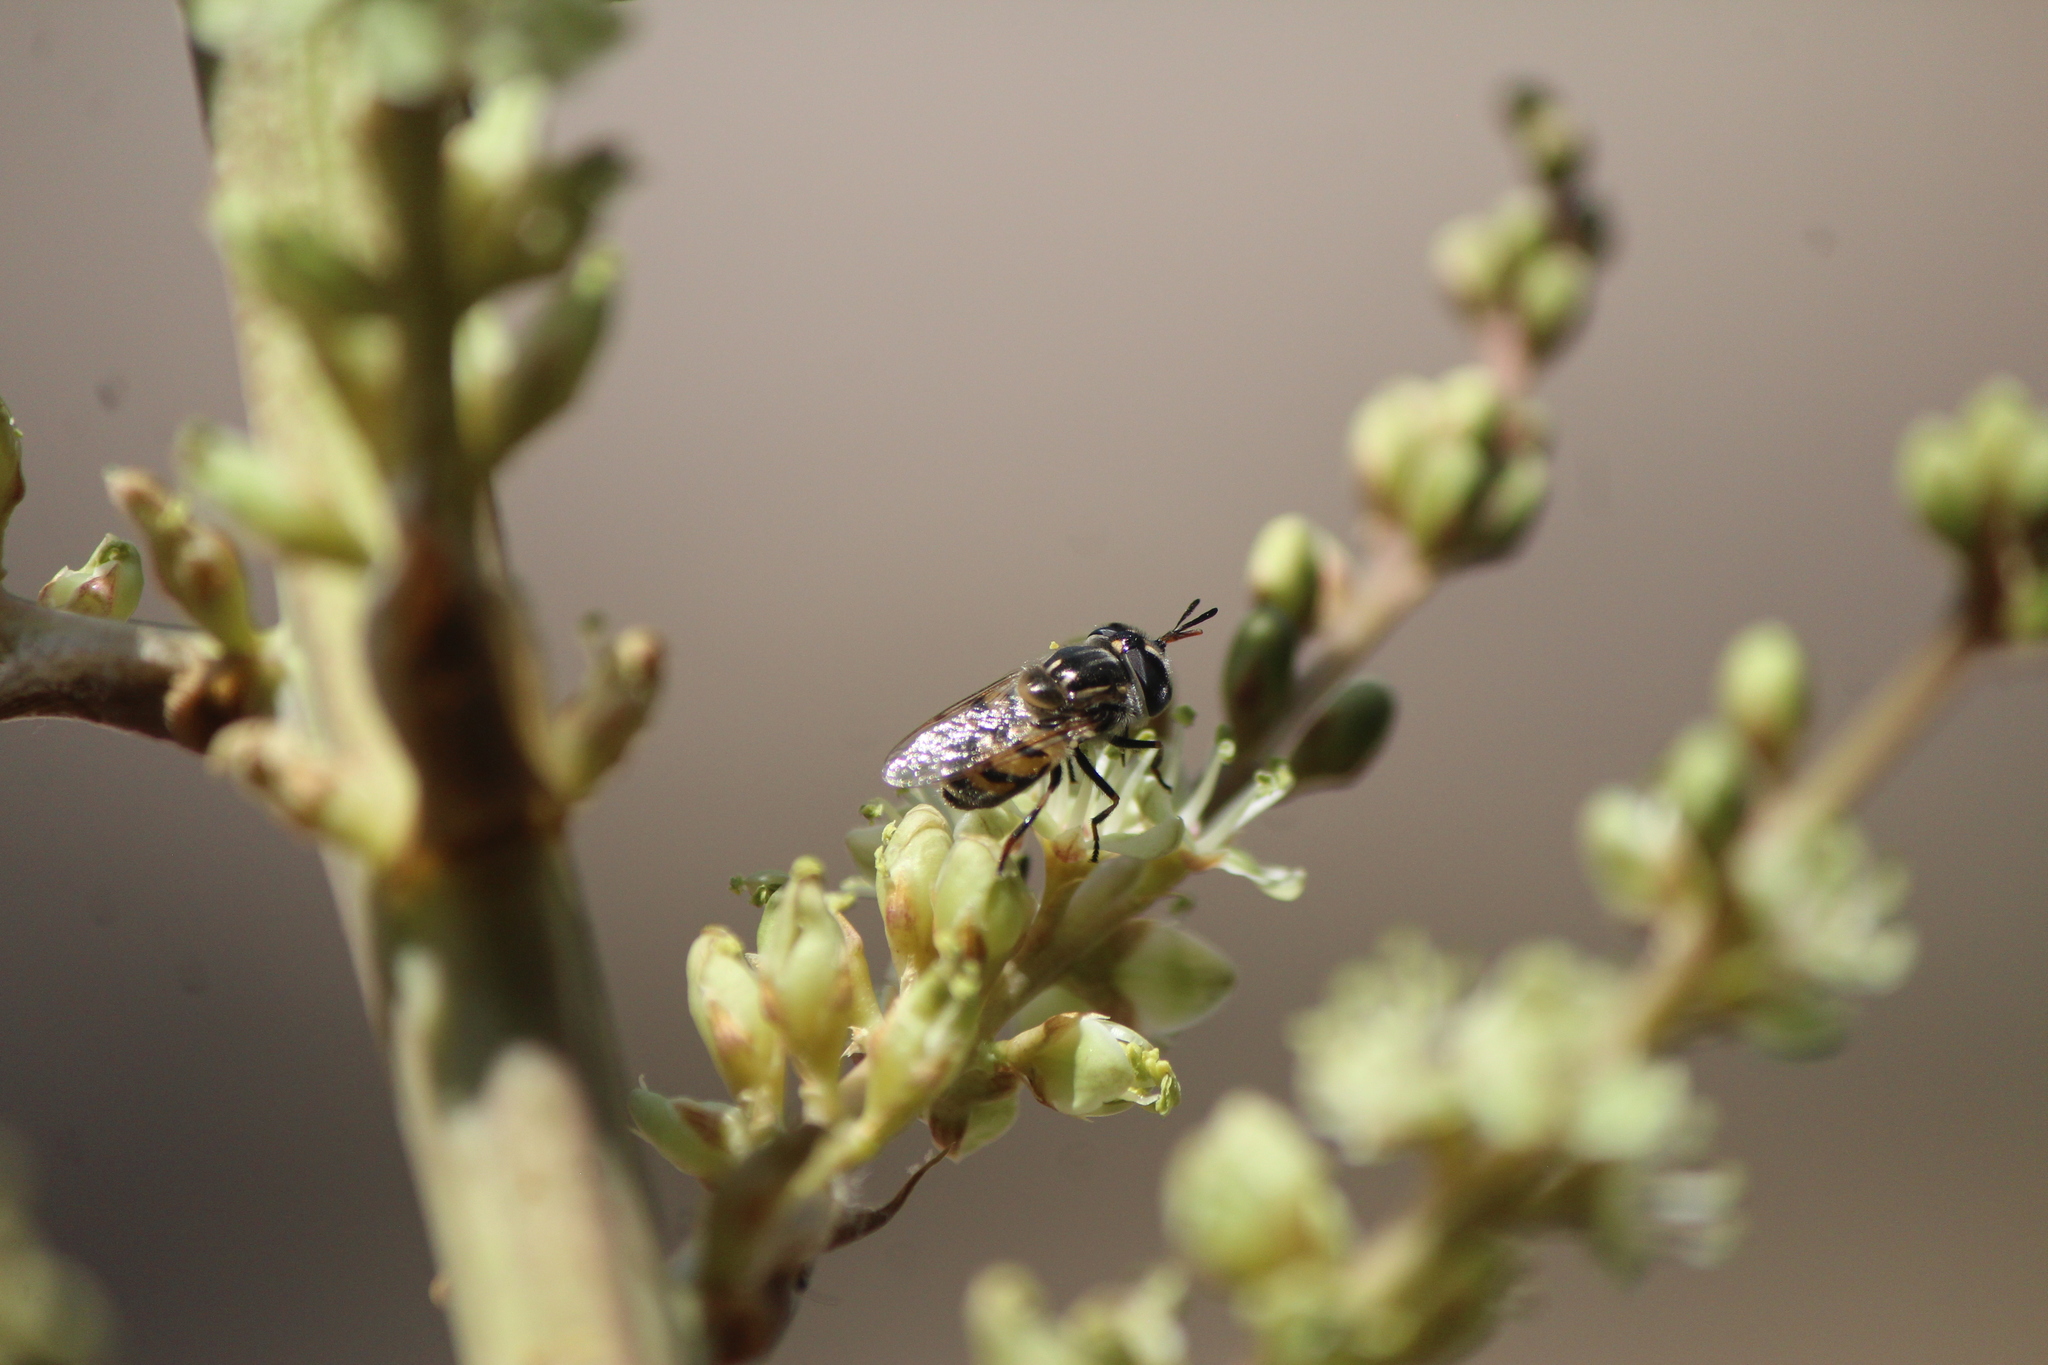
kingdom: Animalia
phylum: Arthropoda
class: Insecta
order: Diptera
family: Syrphidae
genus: Copestylum
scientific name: Copestylum marginatum
